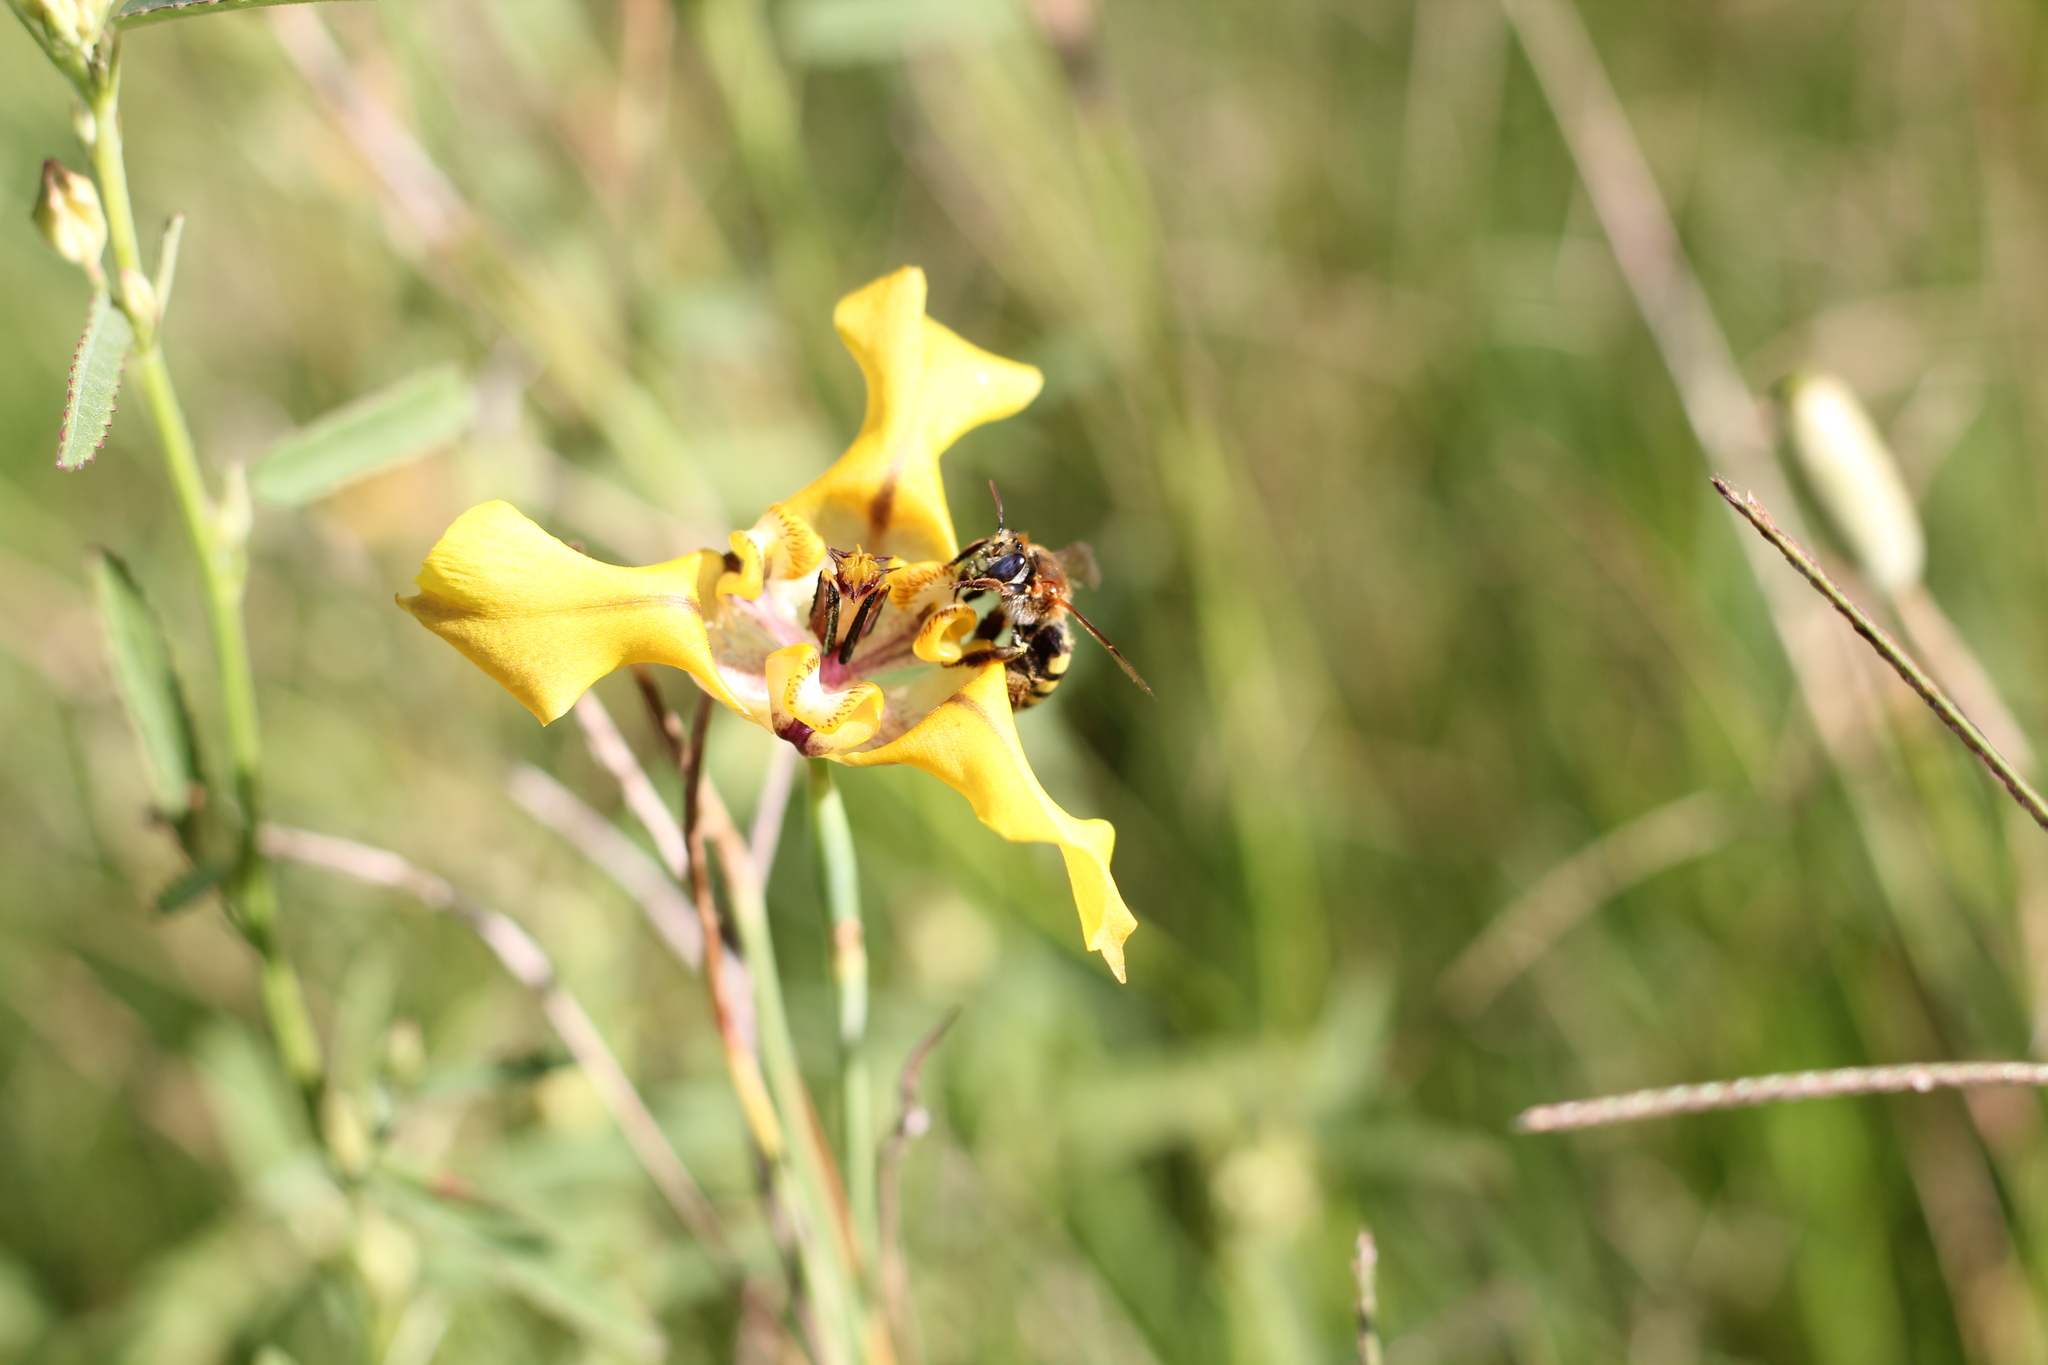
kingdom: Animalia
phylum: Arthropoda
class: Insecta
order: Hymenoptera
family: Apidae
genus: Caenonomada
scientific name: Caenonomada bruneri
